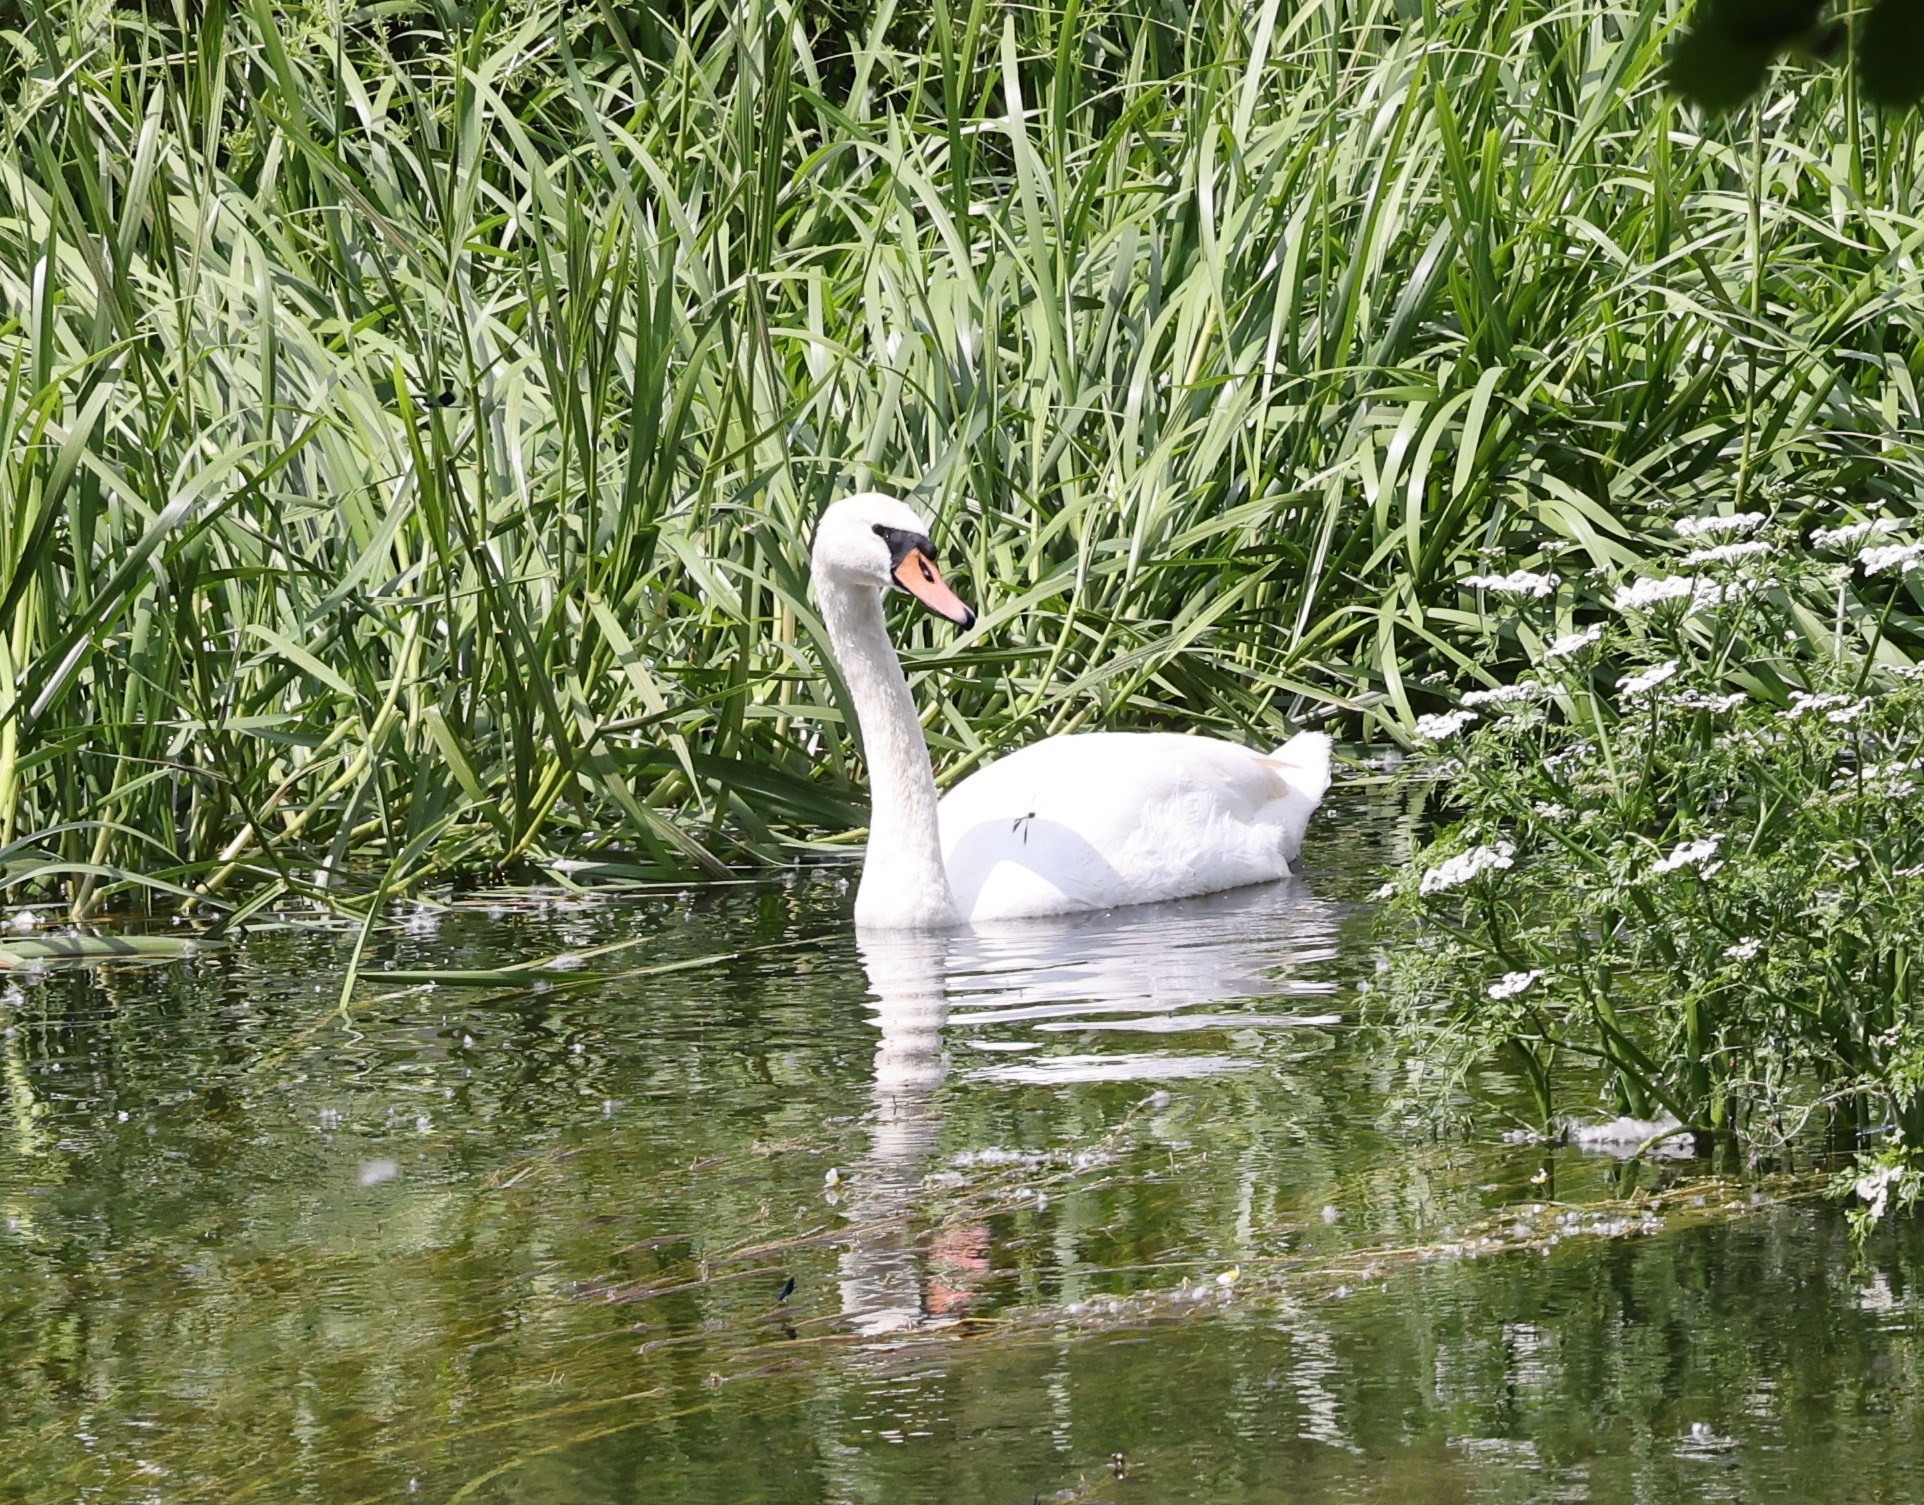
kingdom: Animalia
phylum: Chordata
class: Aves
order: Anseriformes
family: Anatidae
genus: Cygnus
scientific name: Cygnus olor
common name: Mute swan
